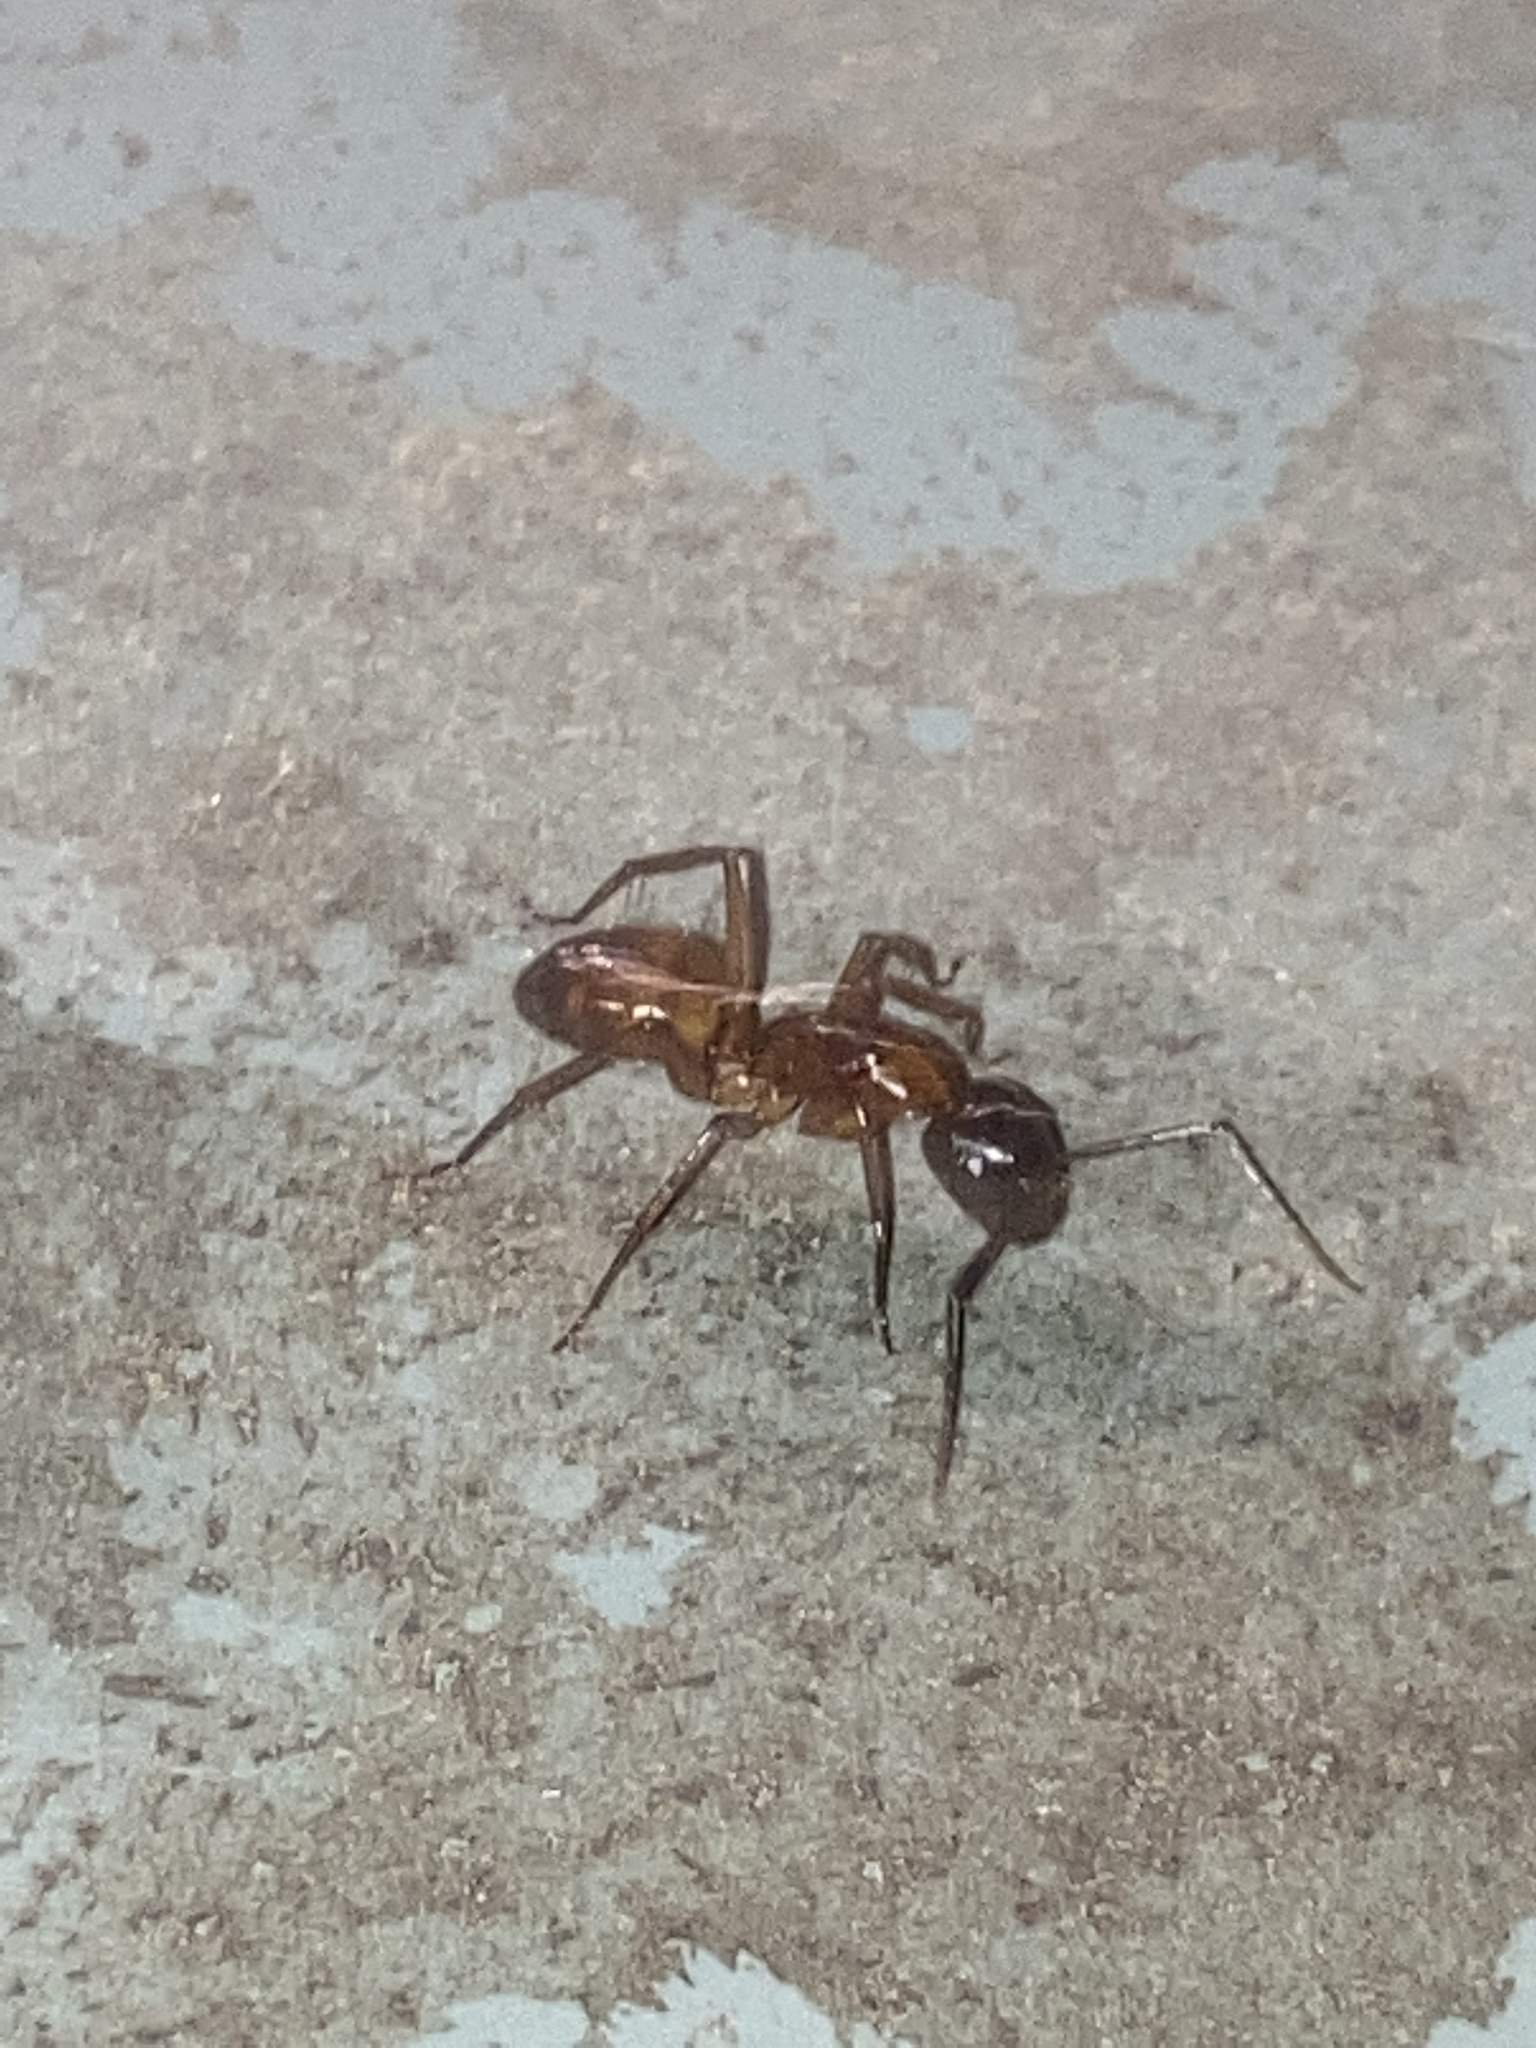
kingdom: Animalia
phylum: Arthropoda
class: Insecta
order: Hymenoptera
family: Formicidae
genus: Camponotus
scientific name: Camponotus americanus
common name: American carpenter ant
